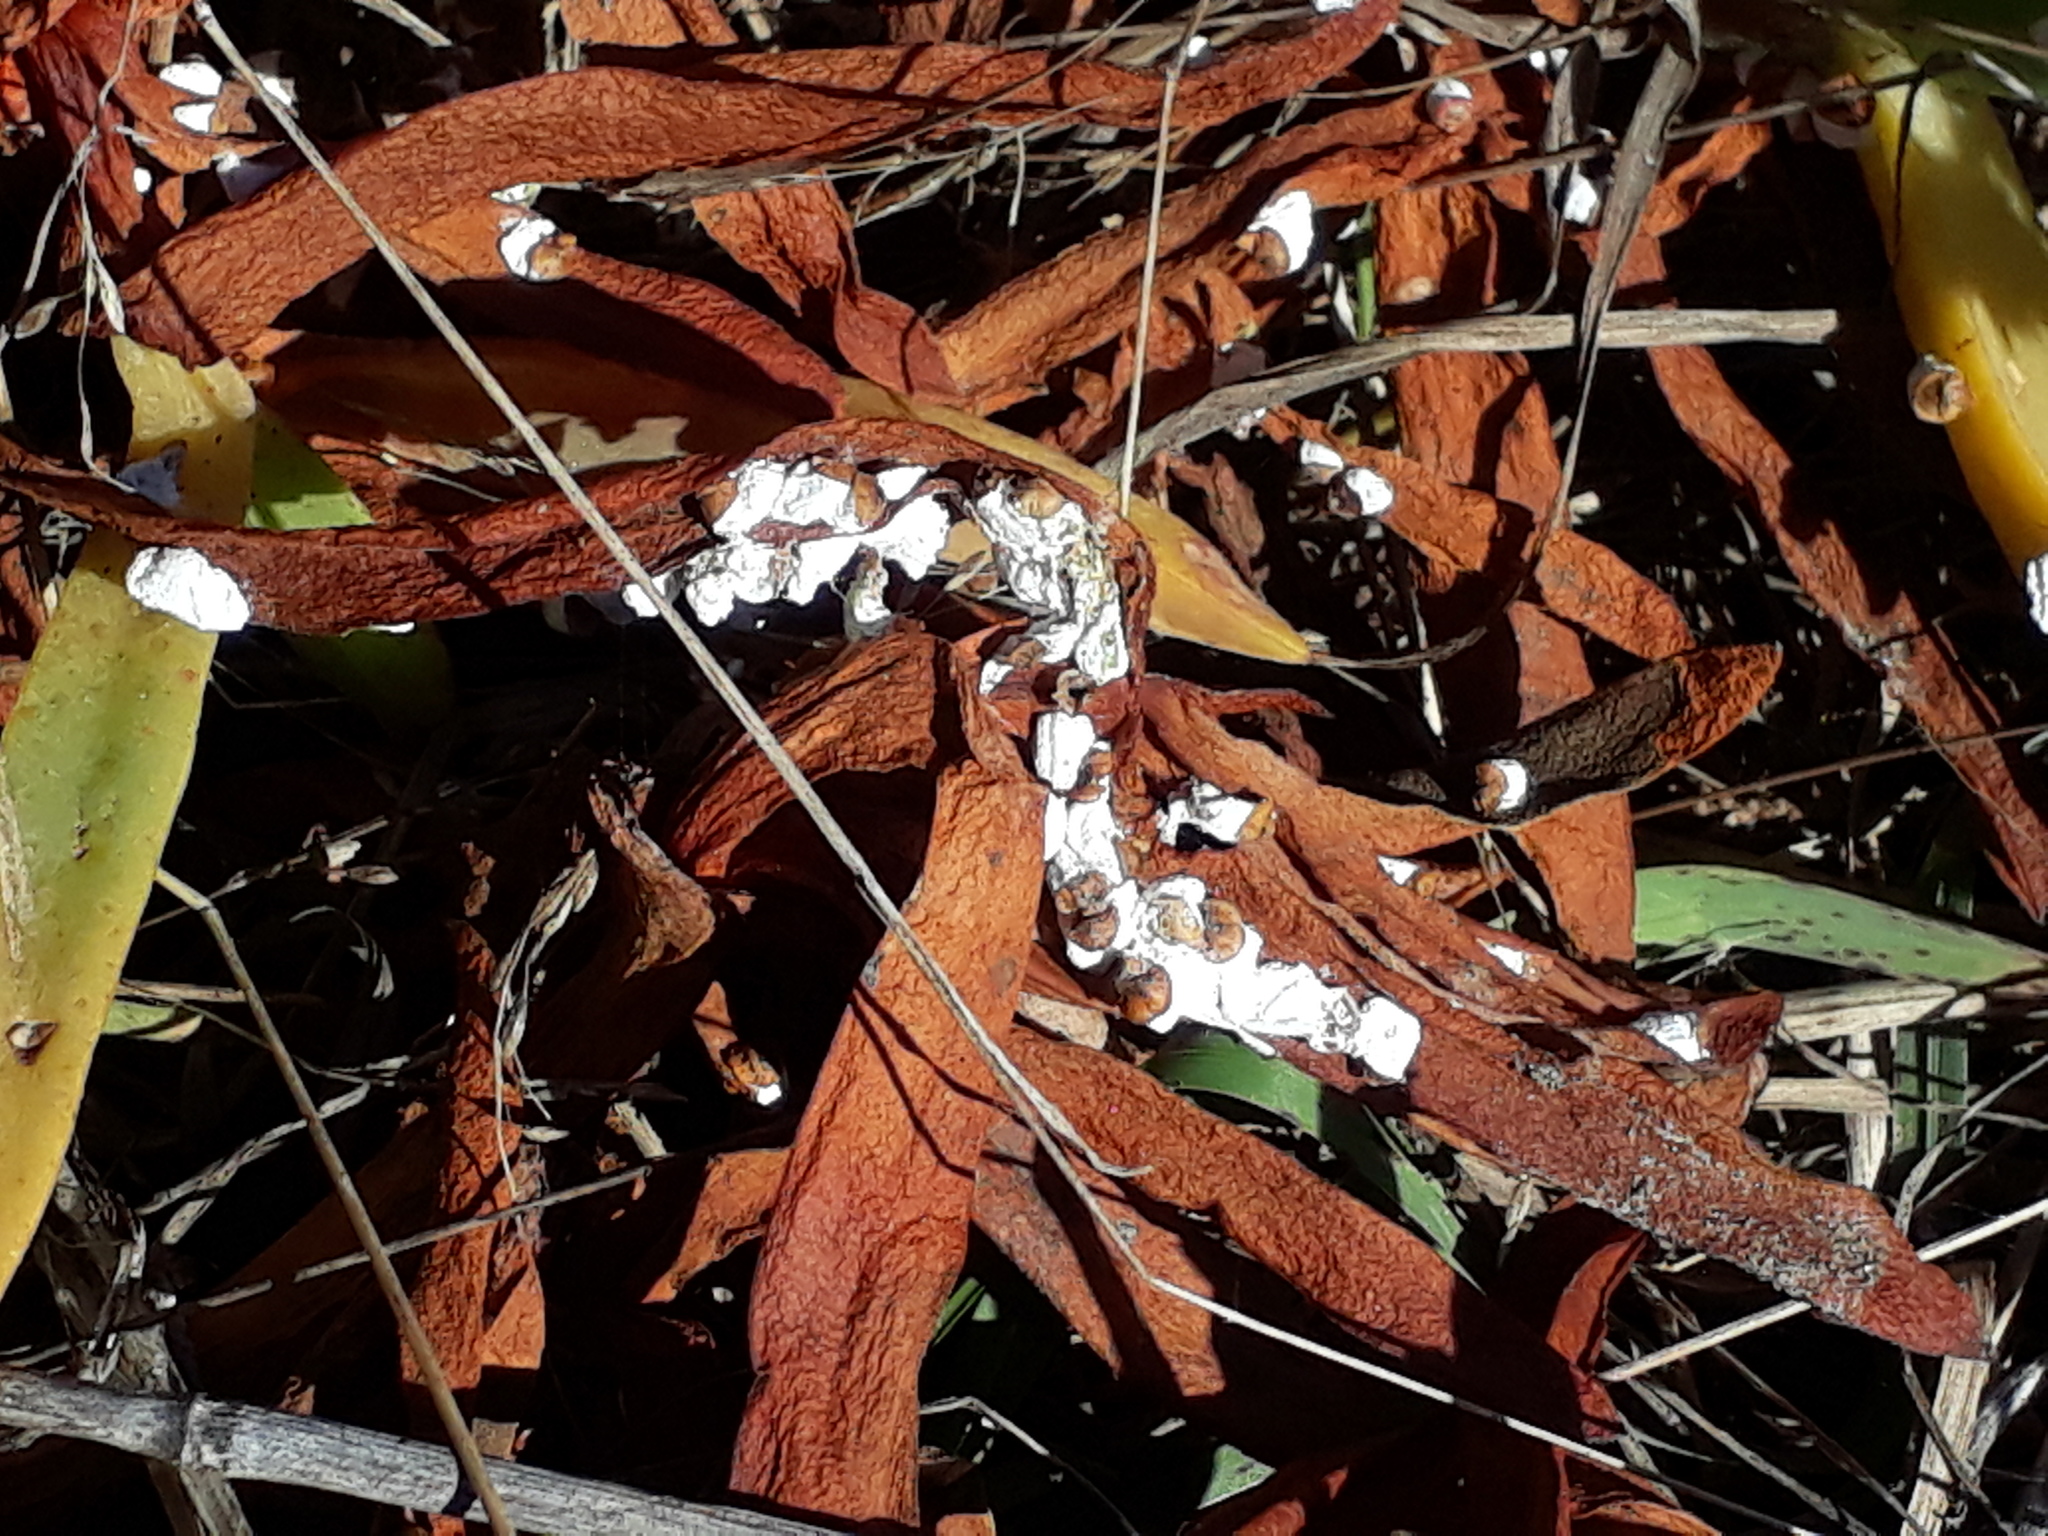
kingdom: Animalia
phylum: Arthropoda
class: Insecta
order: Hemiptera
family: Coccidae
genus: Pulvinariella
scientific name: Pulvinariella mesembryanthemi
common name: Cottony pigface scale
